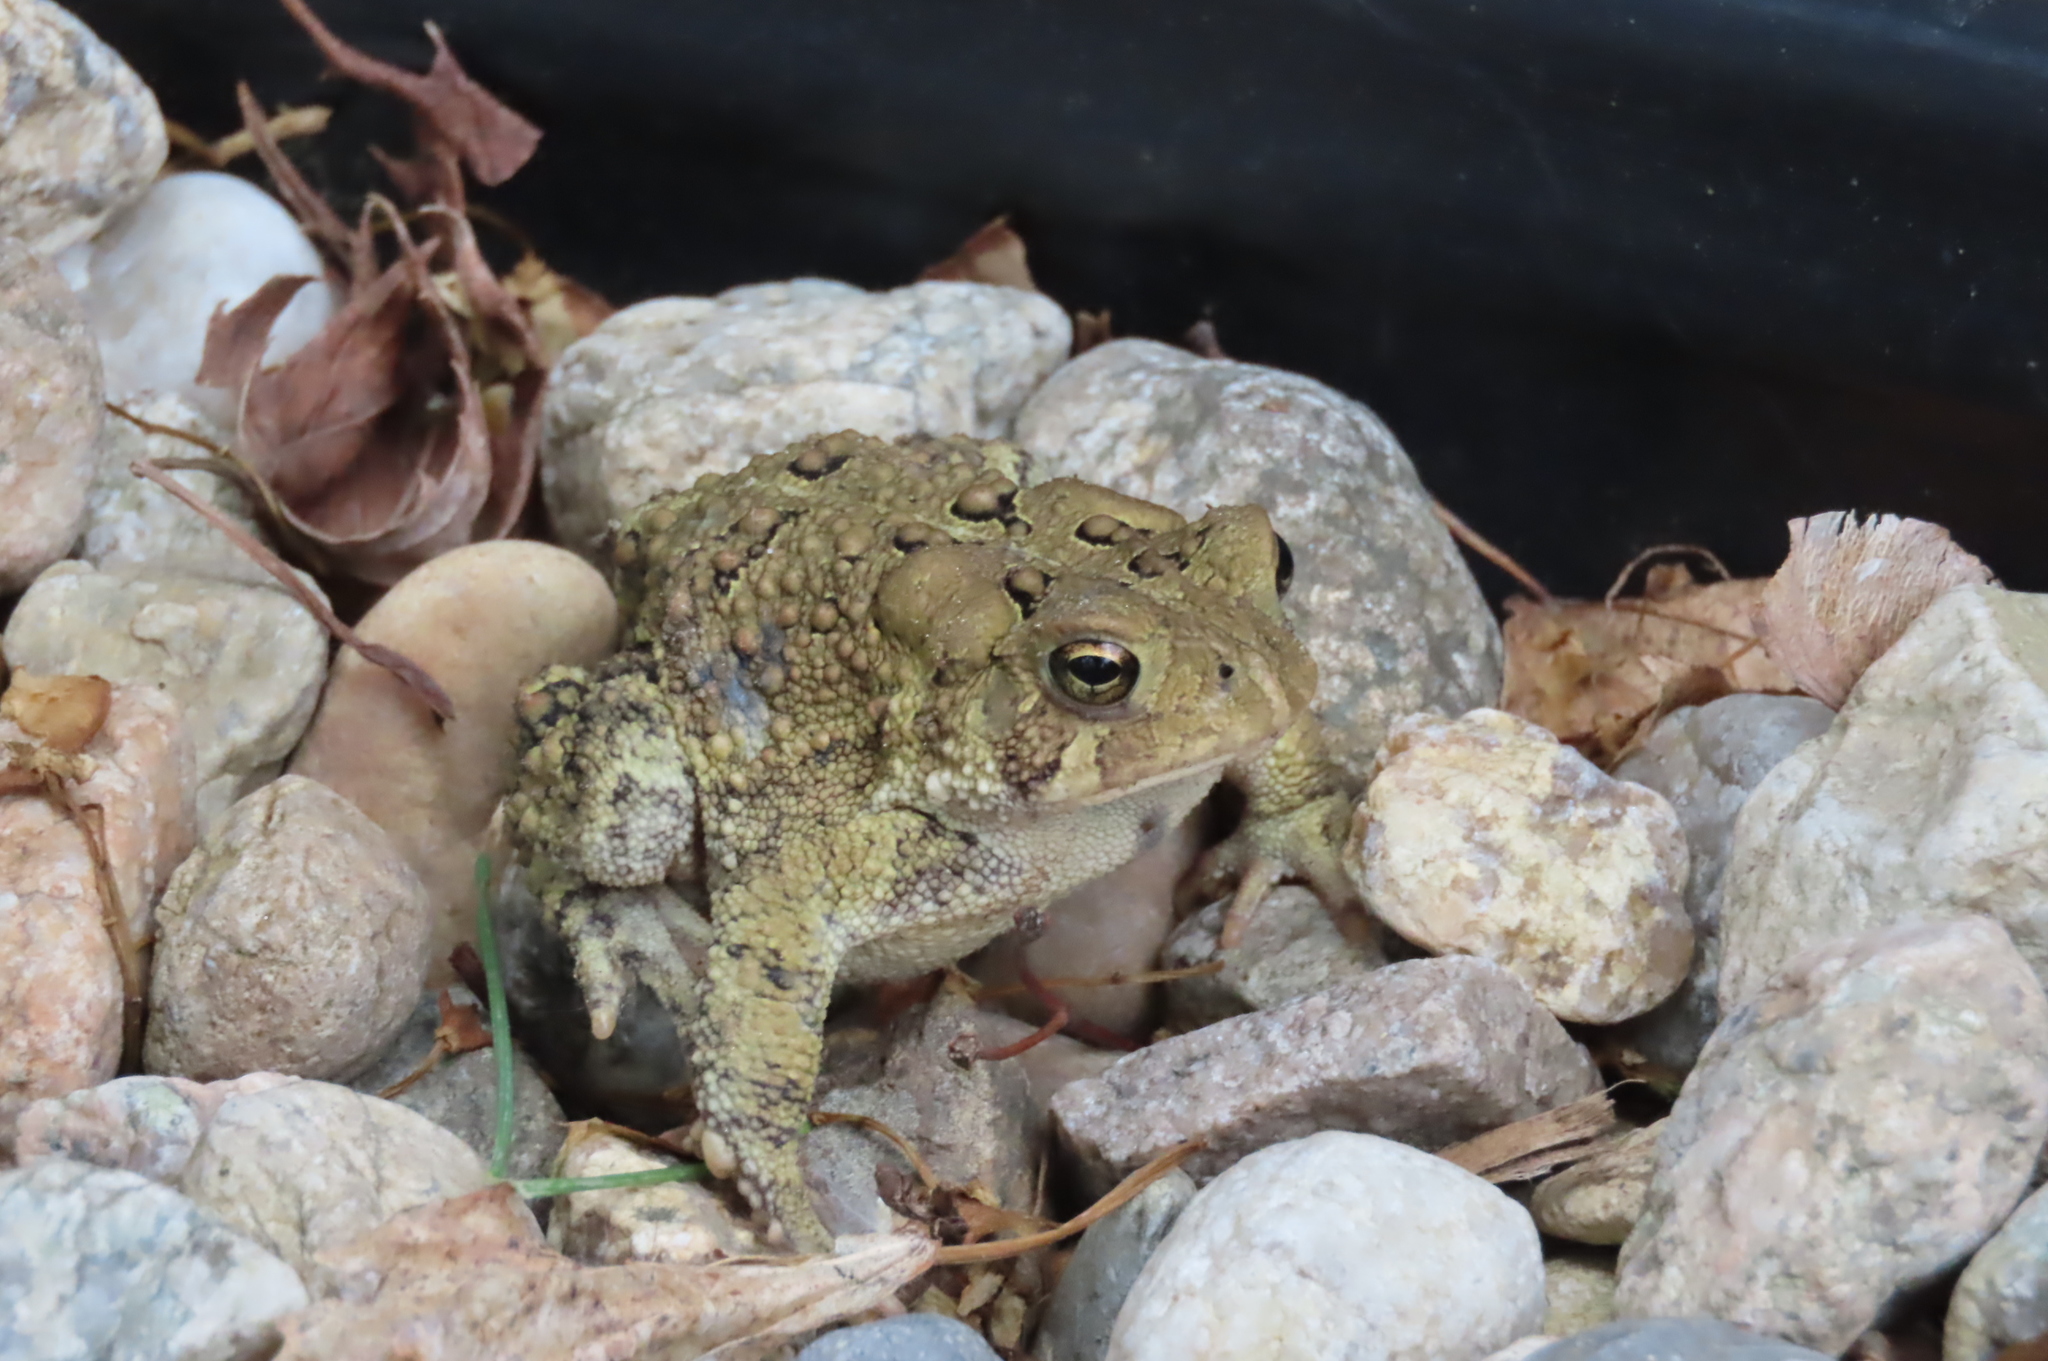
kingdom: Animalia
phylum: Chordata
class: Amphibia
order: Anura
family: Bufonidae
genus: Anaxyrus
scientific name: Anaxyrus americanus
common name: American toad
